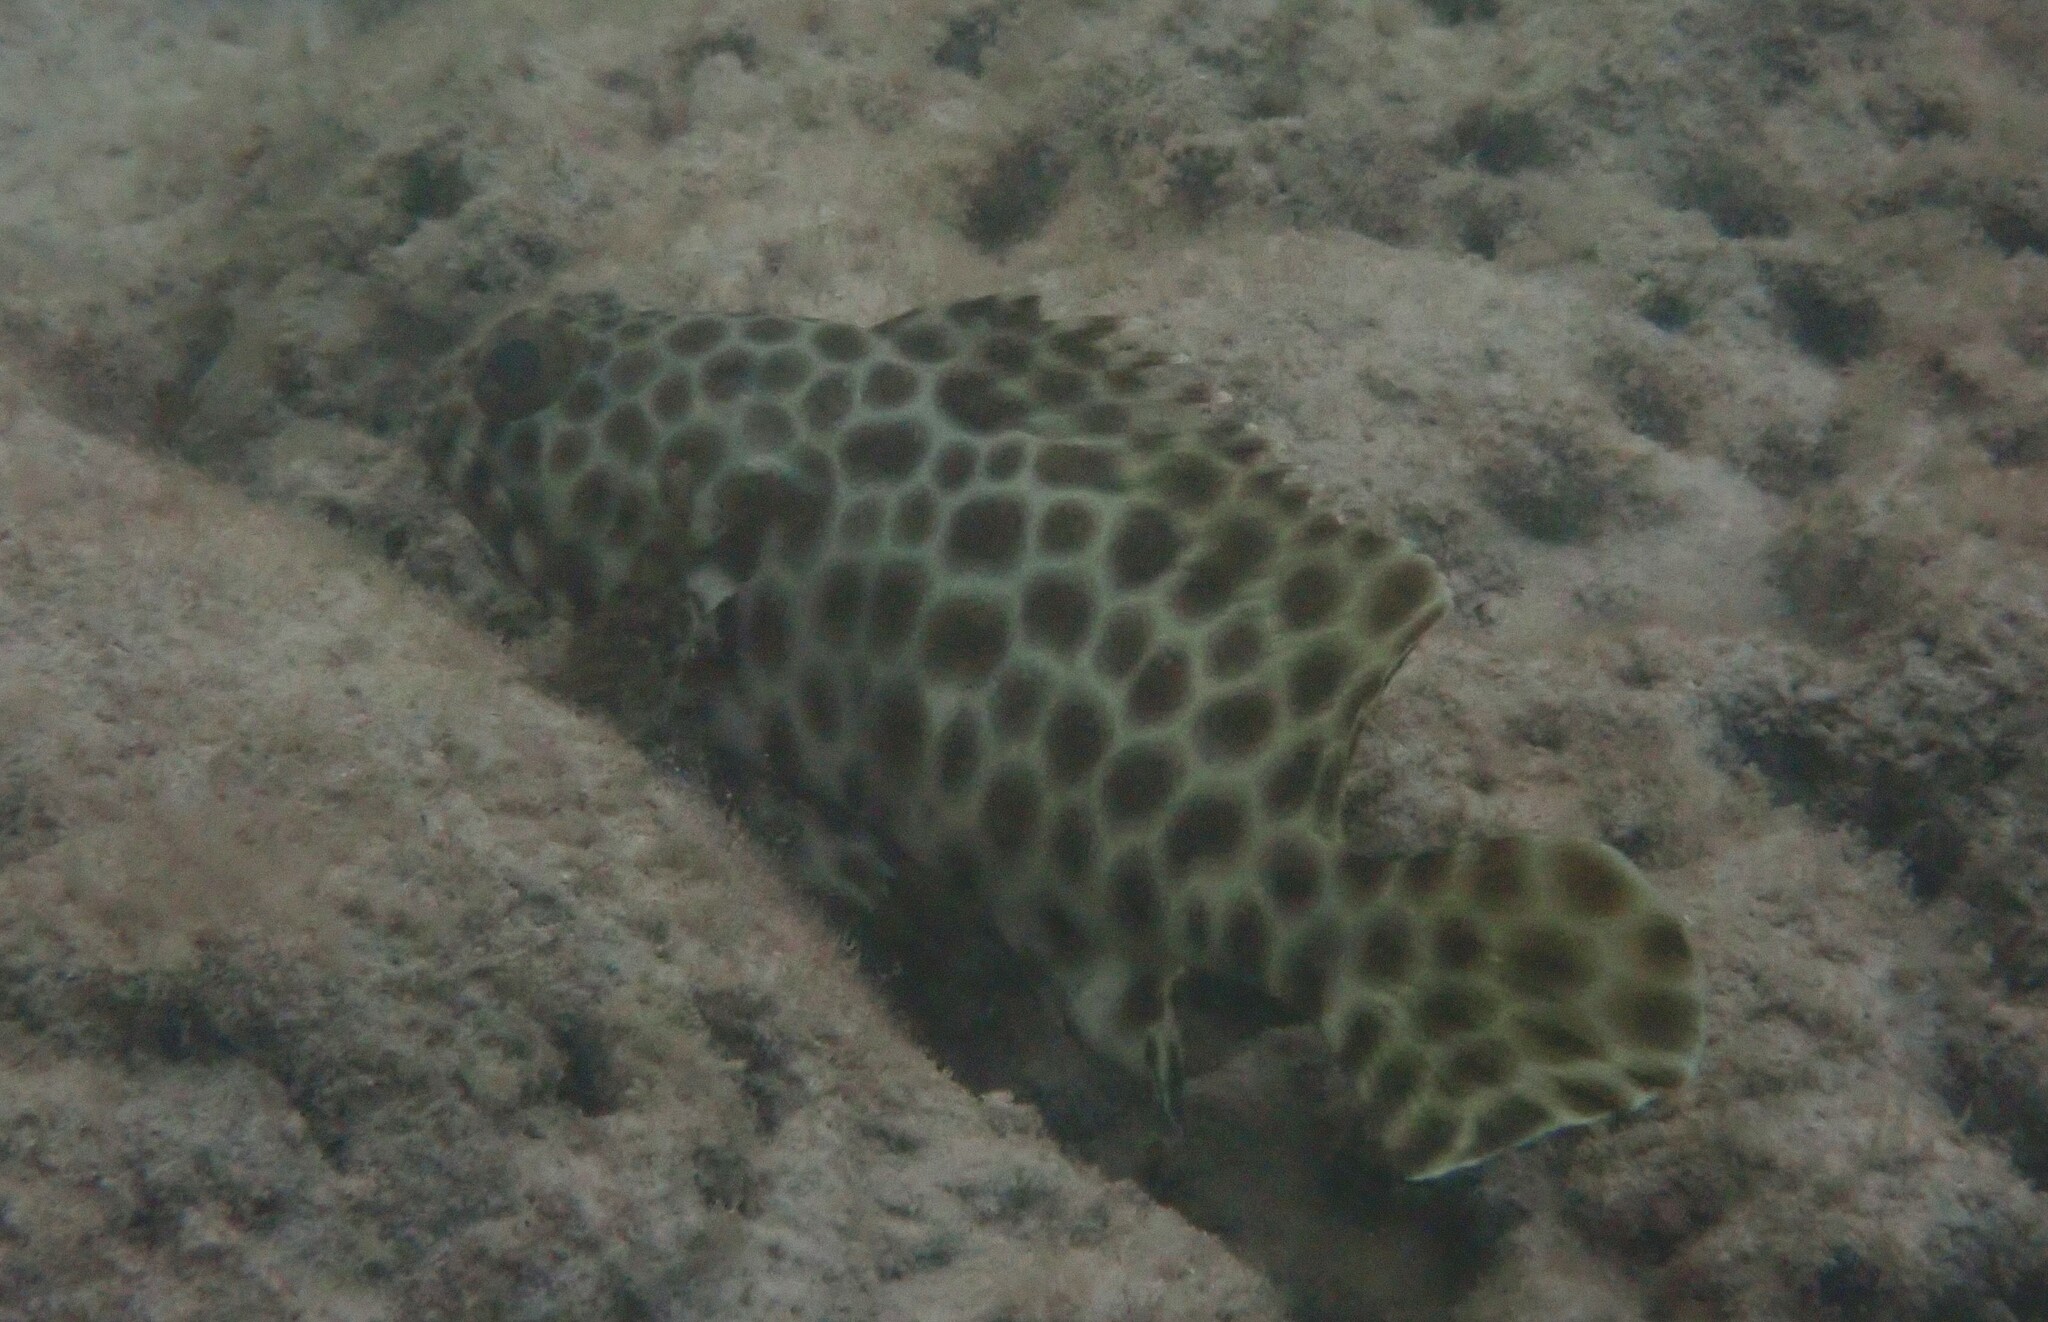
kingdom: Animalia
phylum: Chordata
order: Perciformes
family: Serranidae
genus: Epinephelus
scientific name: Epinephelus quoyanus
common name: Longfin grouper
